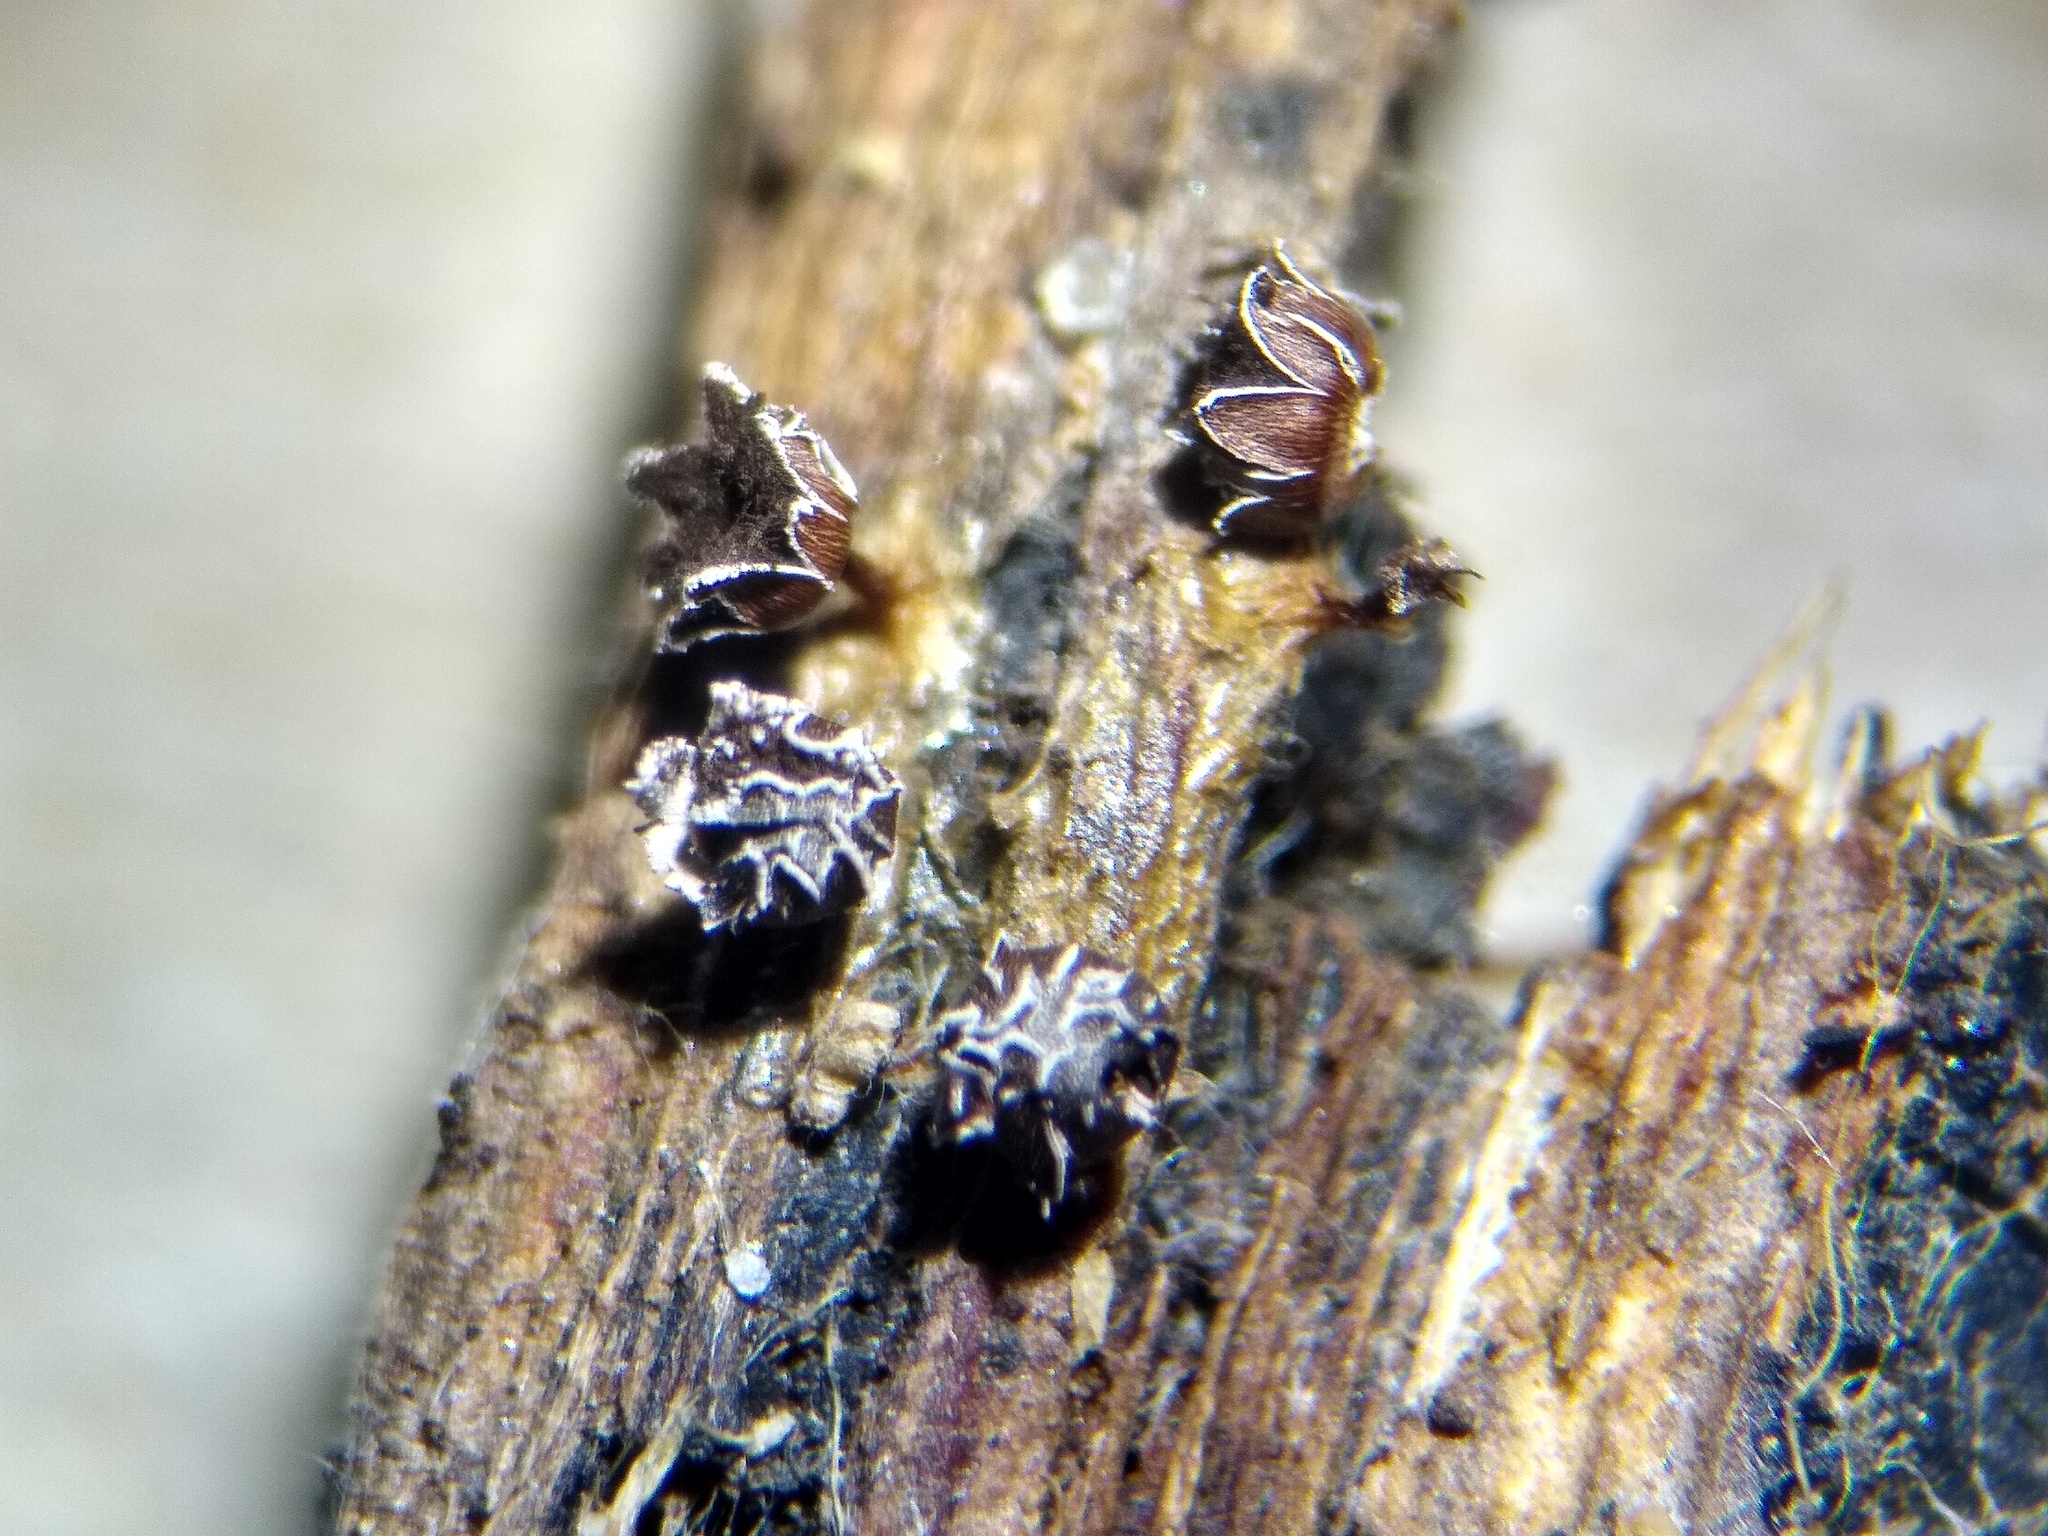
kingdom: Protozoa
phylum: Mycetozoa
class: Myxomycetes
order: Physarales
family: Didymiaceae
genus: Diderma
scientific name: Diderma subasteroides
